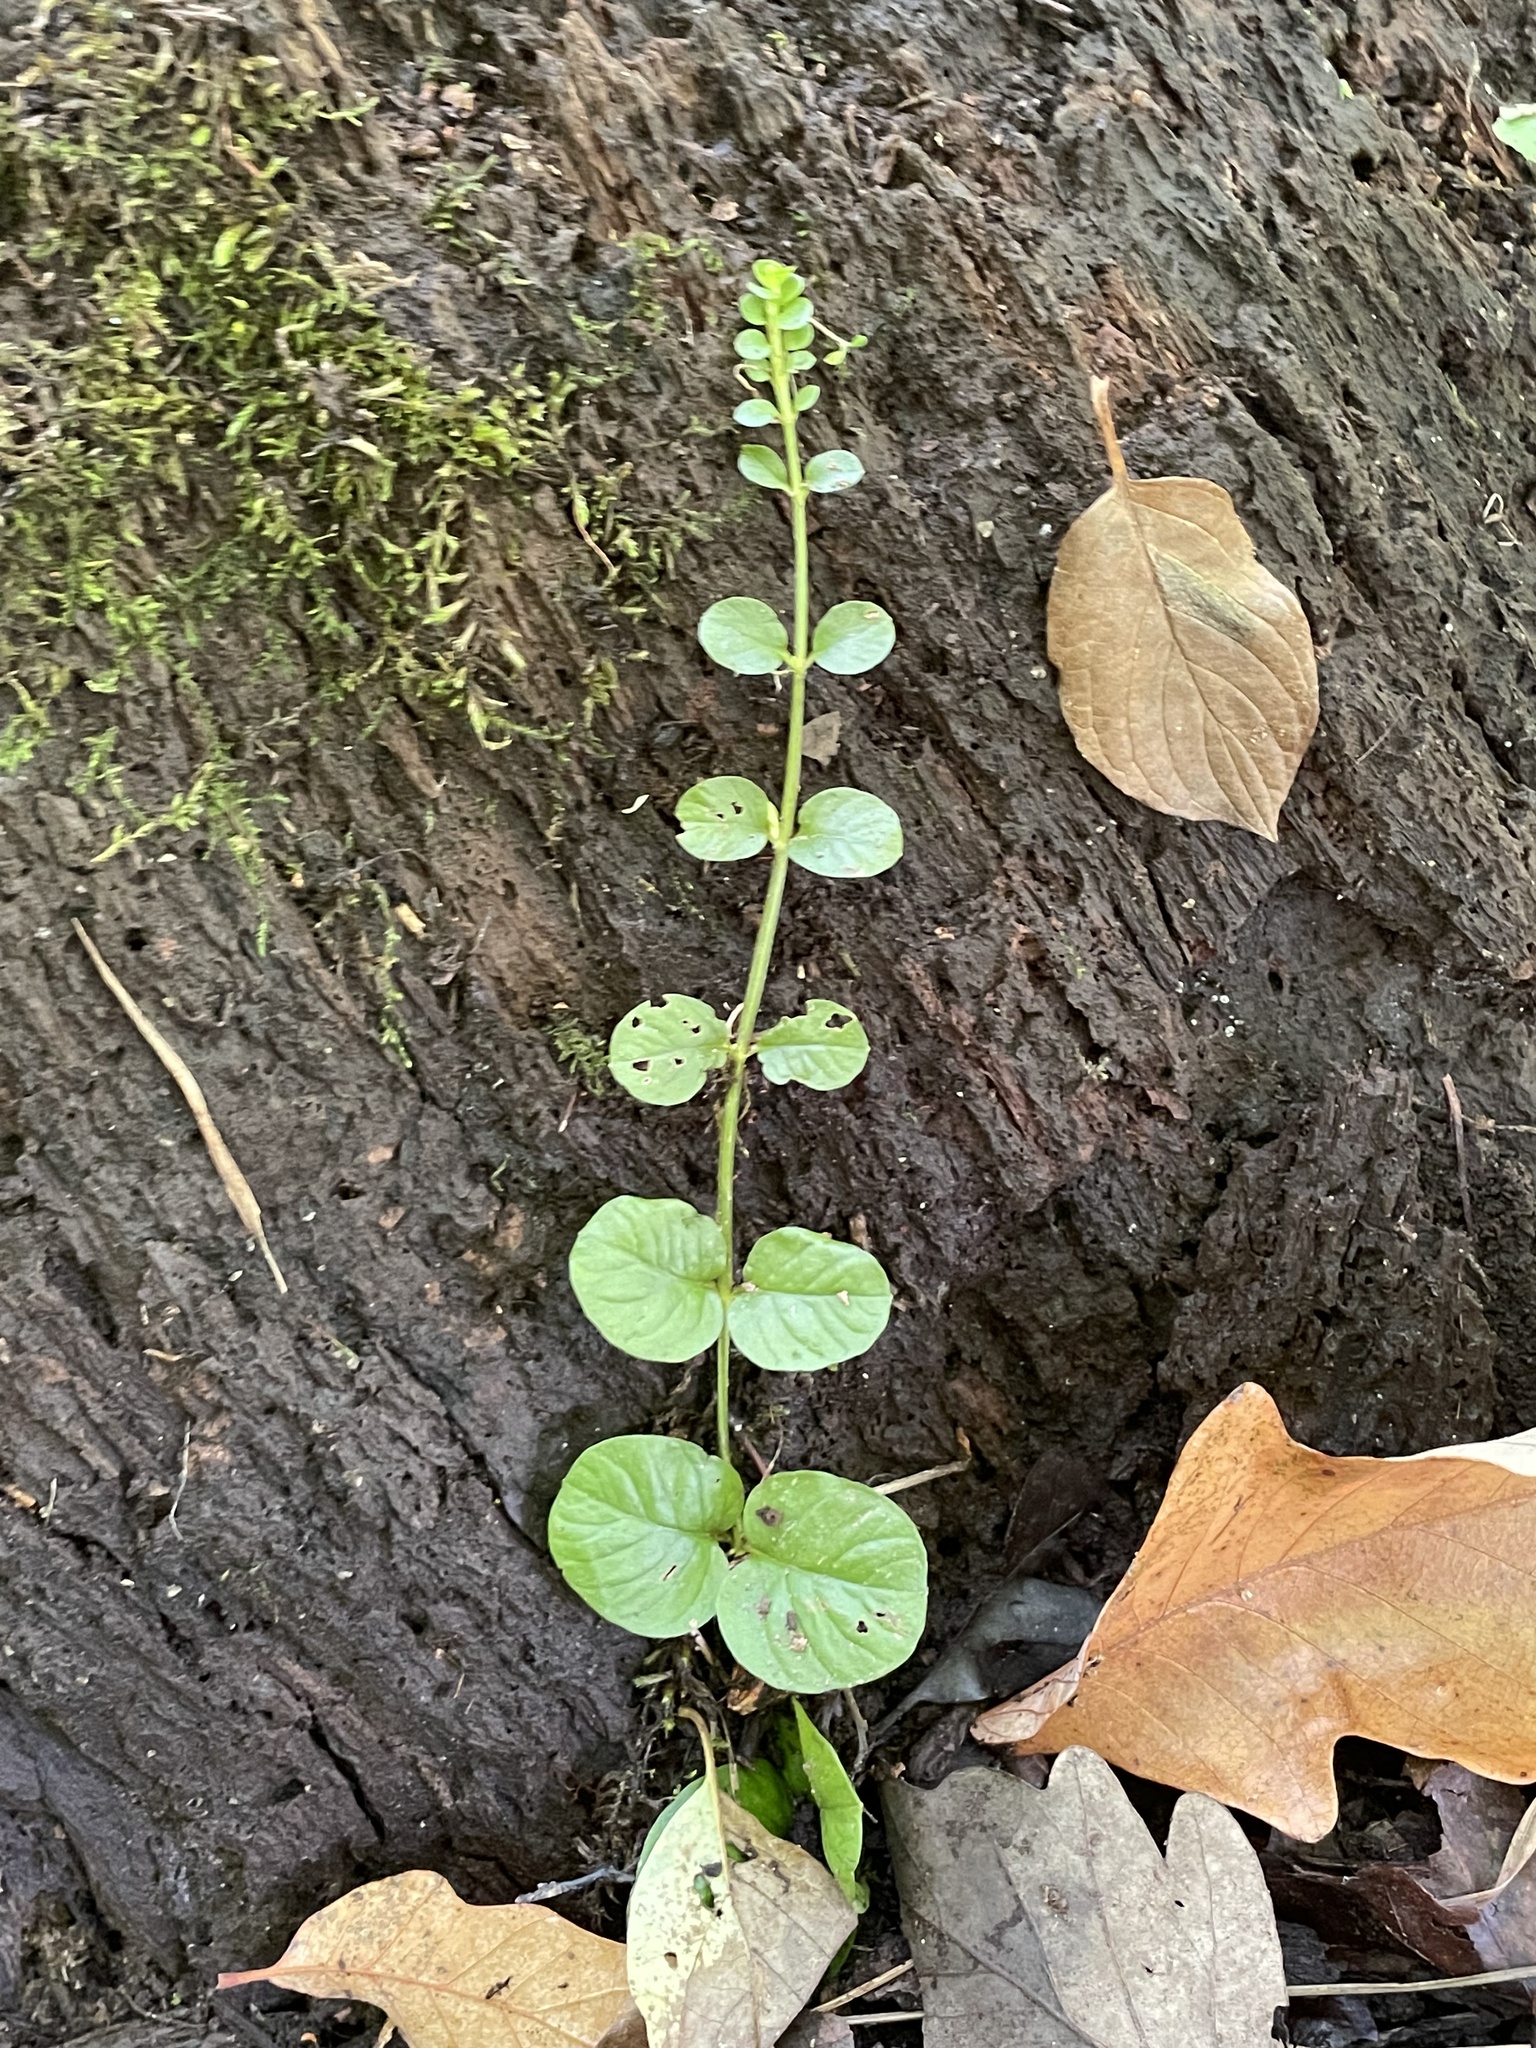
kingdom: Plantae
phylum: Tracheophyta
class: Magnoliopsida
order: Ericales
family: Primulaceae
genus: Lysimachia
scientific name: Lysimachia nummularia
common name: Moneywort
